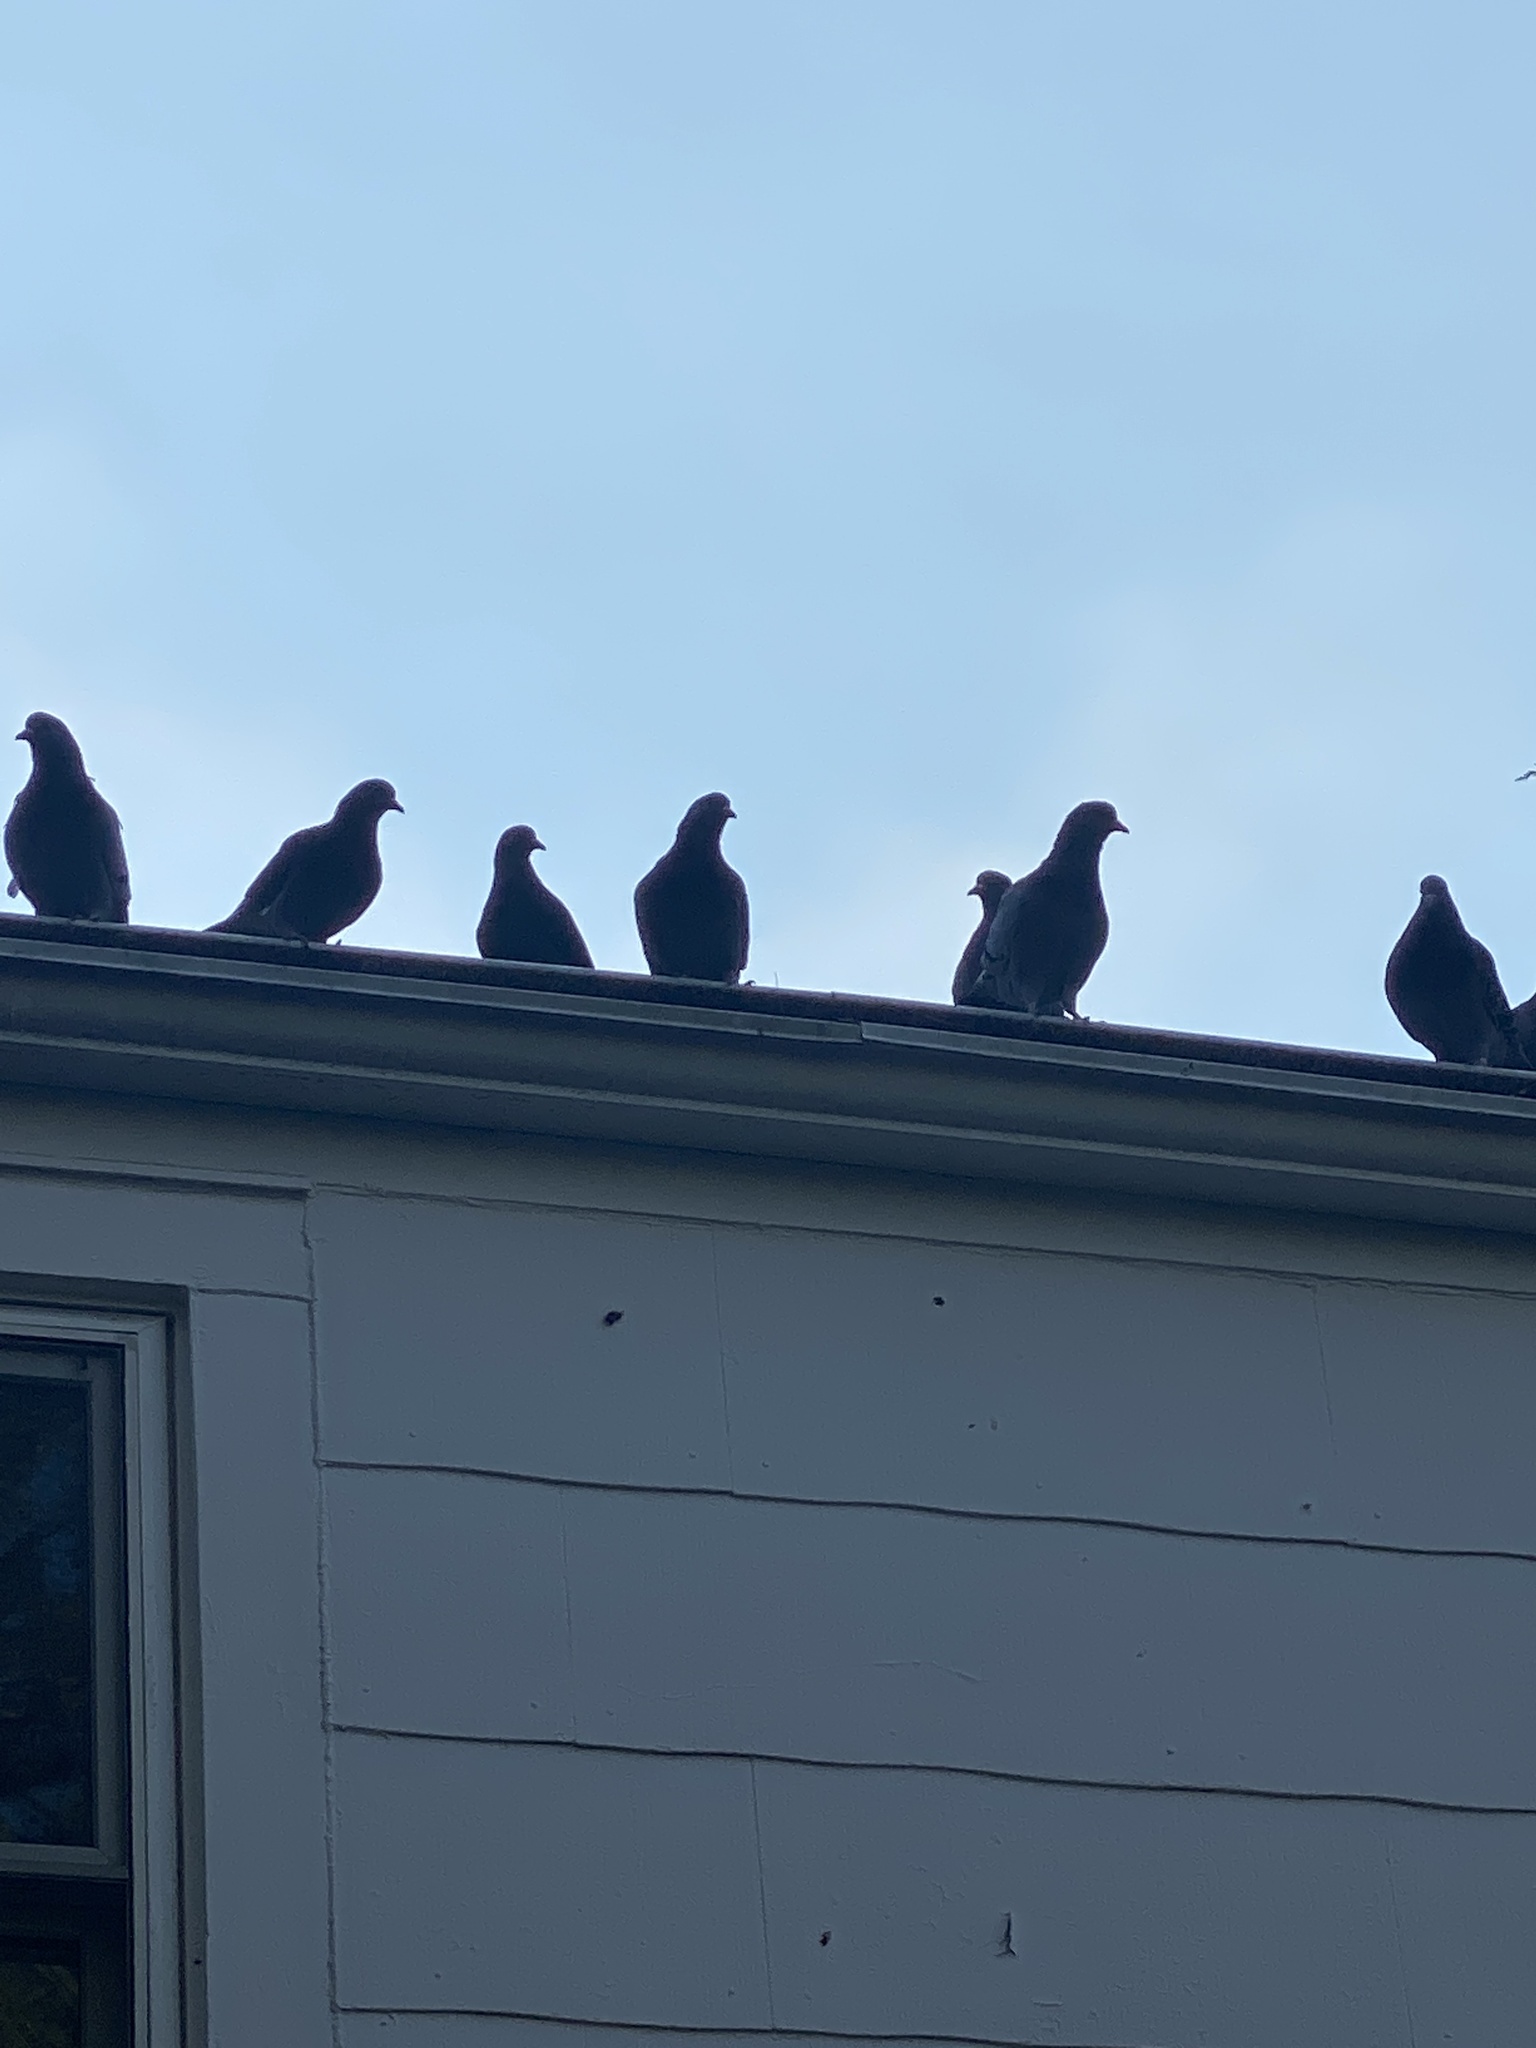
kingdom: Animalia
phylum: Chordata
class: Aves
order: Columbiformes
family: Columbidae
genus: Columba
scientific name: Columba livia
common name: Rock pigeon
